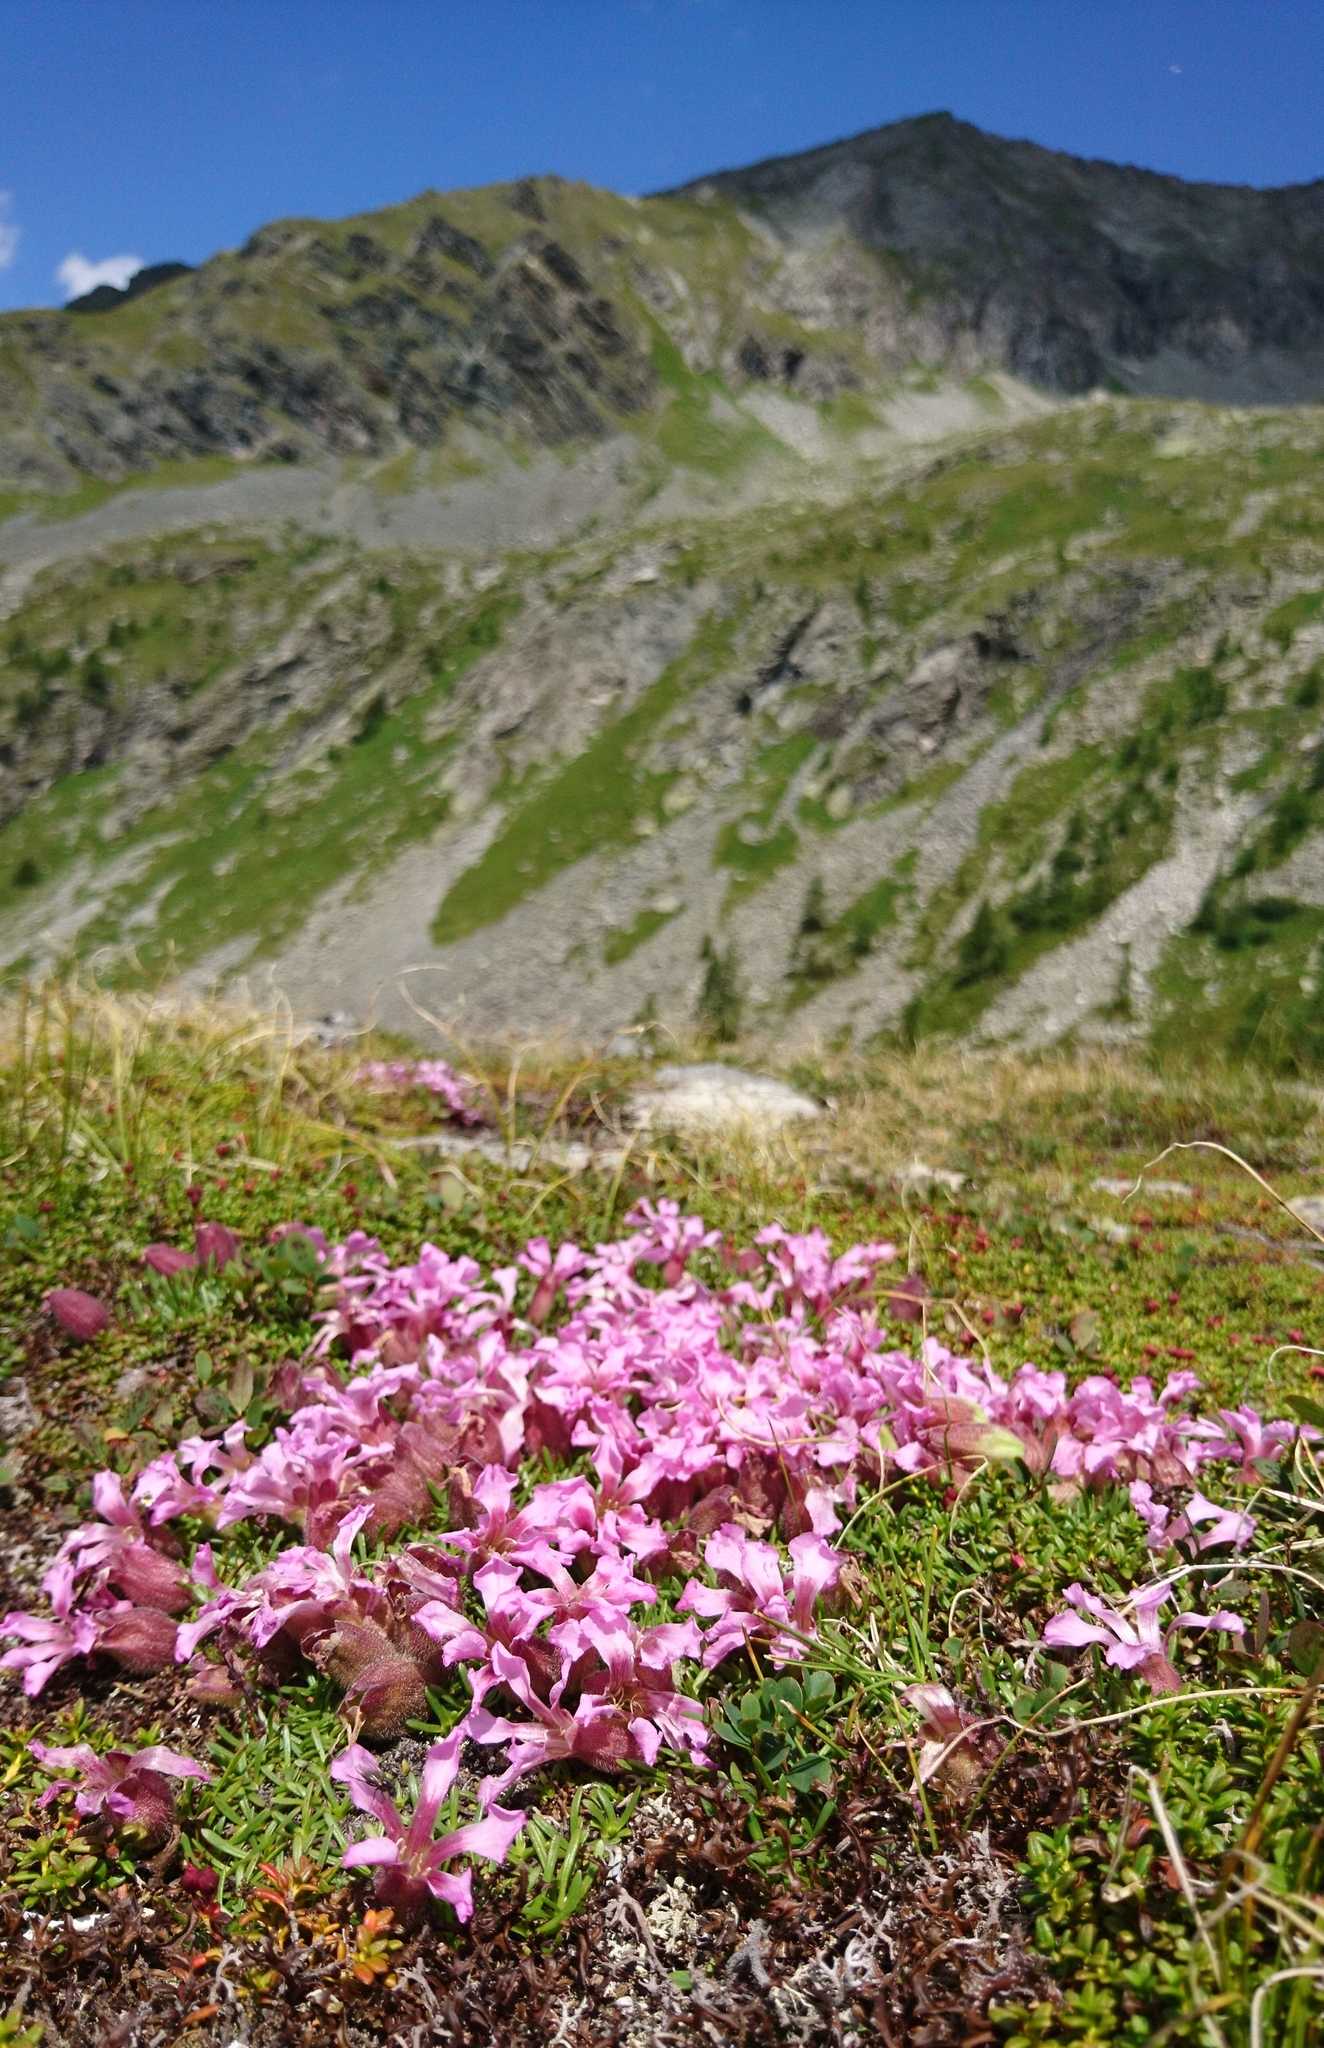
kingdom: Plantae
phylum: Tracheophyta
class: Magnoliopsida
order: Caryophyllales
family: Caryophyllaceae
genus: Saponaria
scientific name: Saponaria pumila
